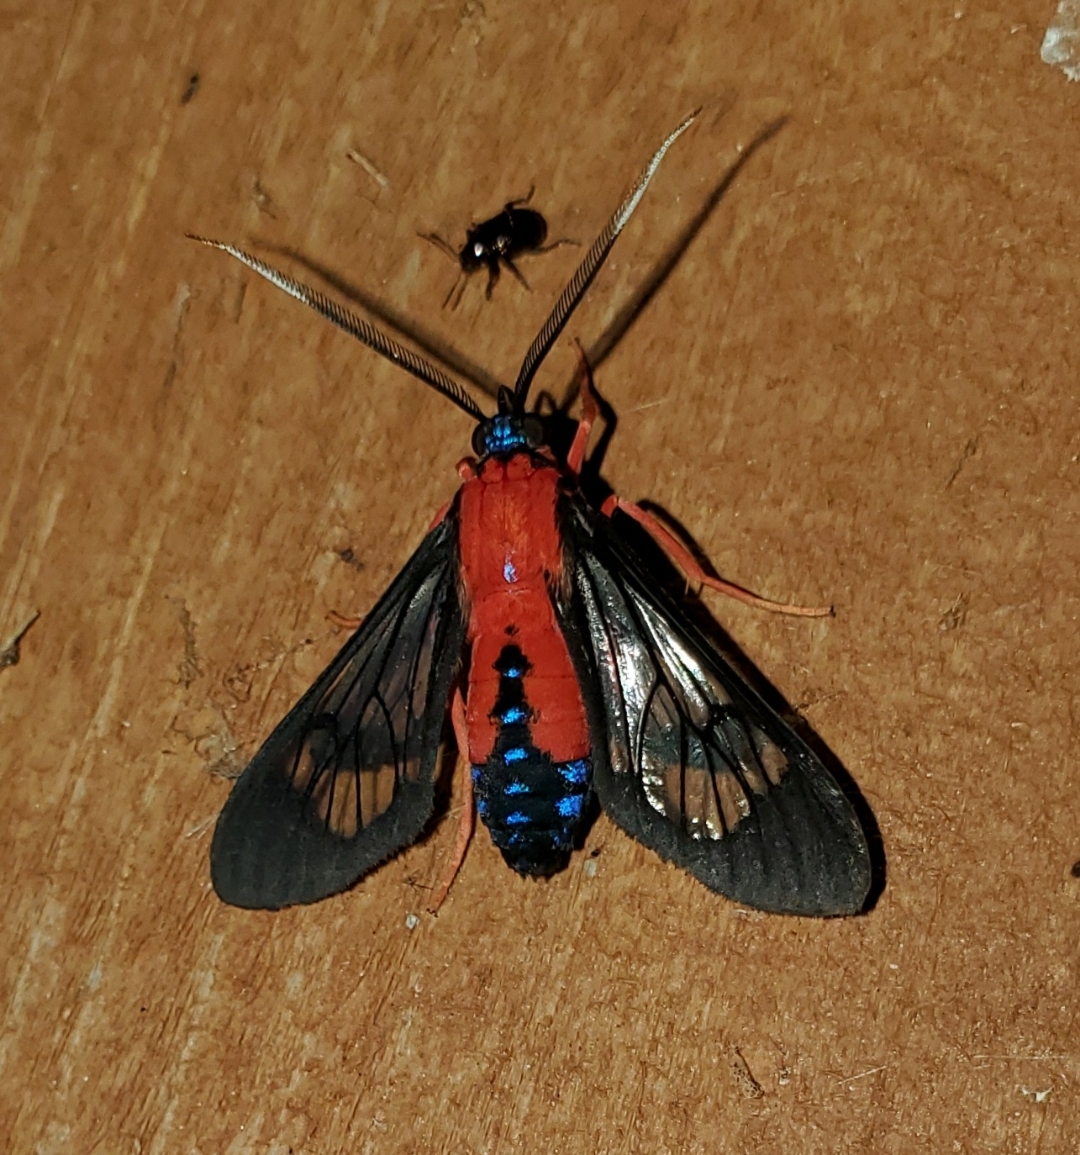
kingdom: Animalia
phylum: Arthropoda
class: Insecta
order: Lepidoptera
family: Erebidae
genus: Cosmosoma
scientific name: Cosmosoma myrodora
